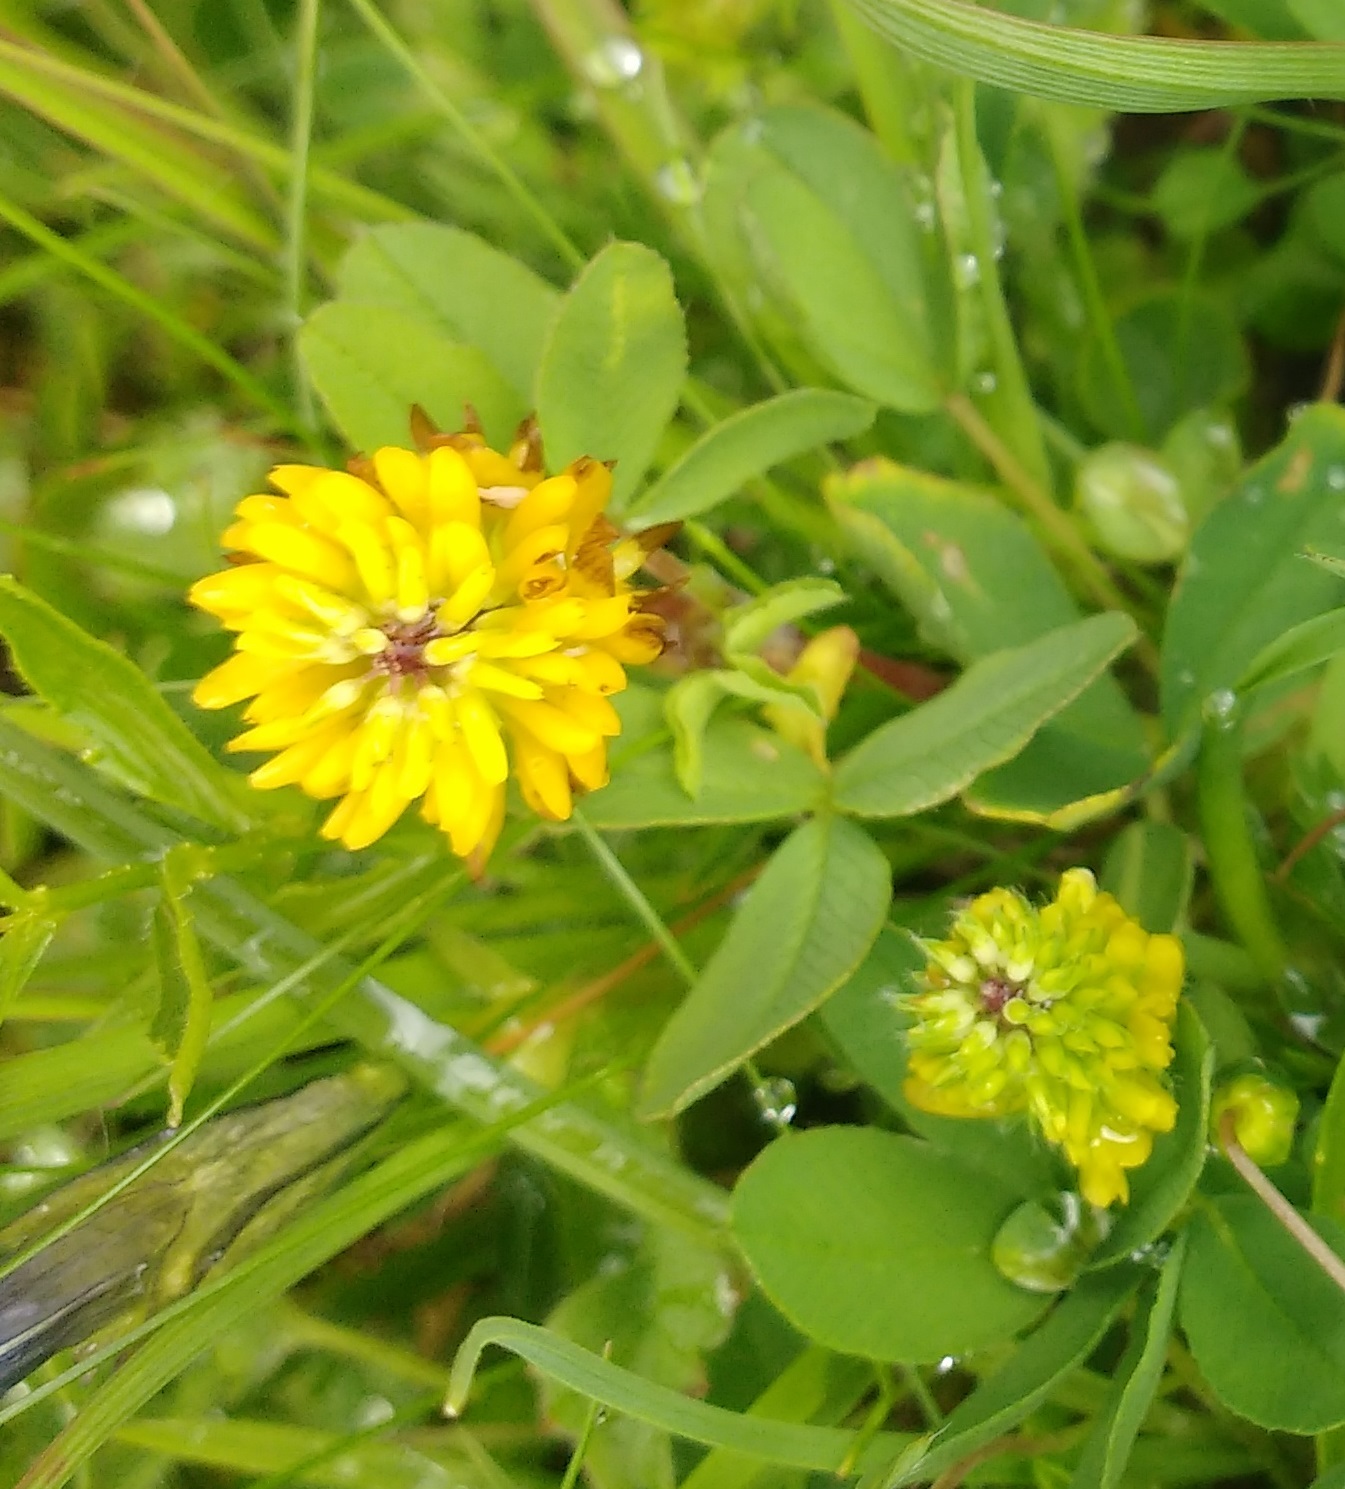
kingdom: Plantae
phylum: Tracheophyta
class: Magnoliopsida
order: Fabales
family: Fabaceae
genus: Trifolium
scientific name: Trifolium badium
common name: Brown clover
